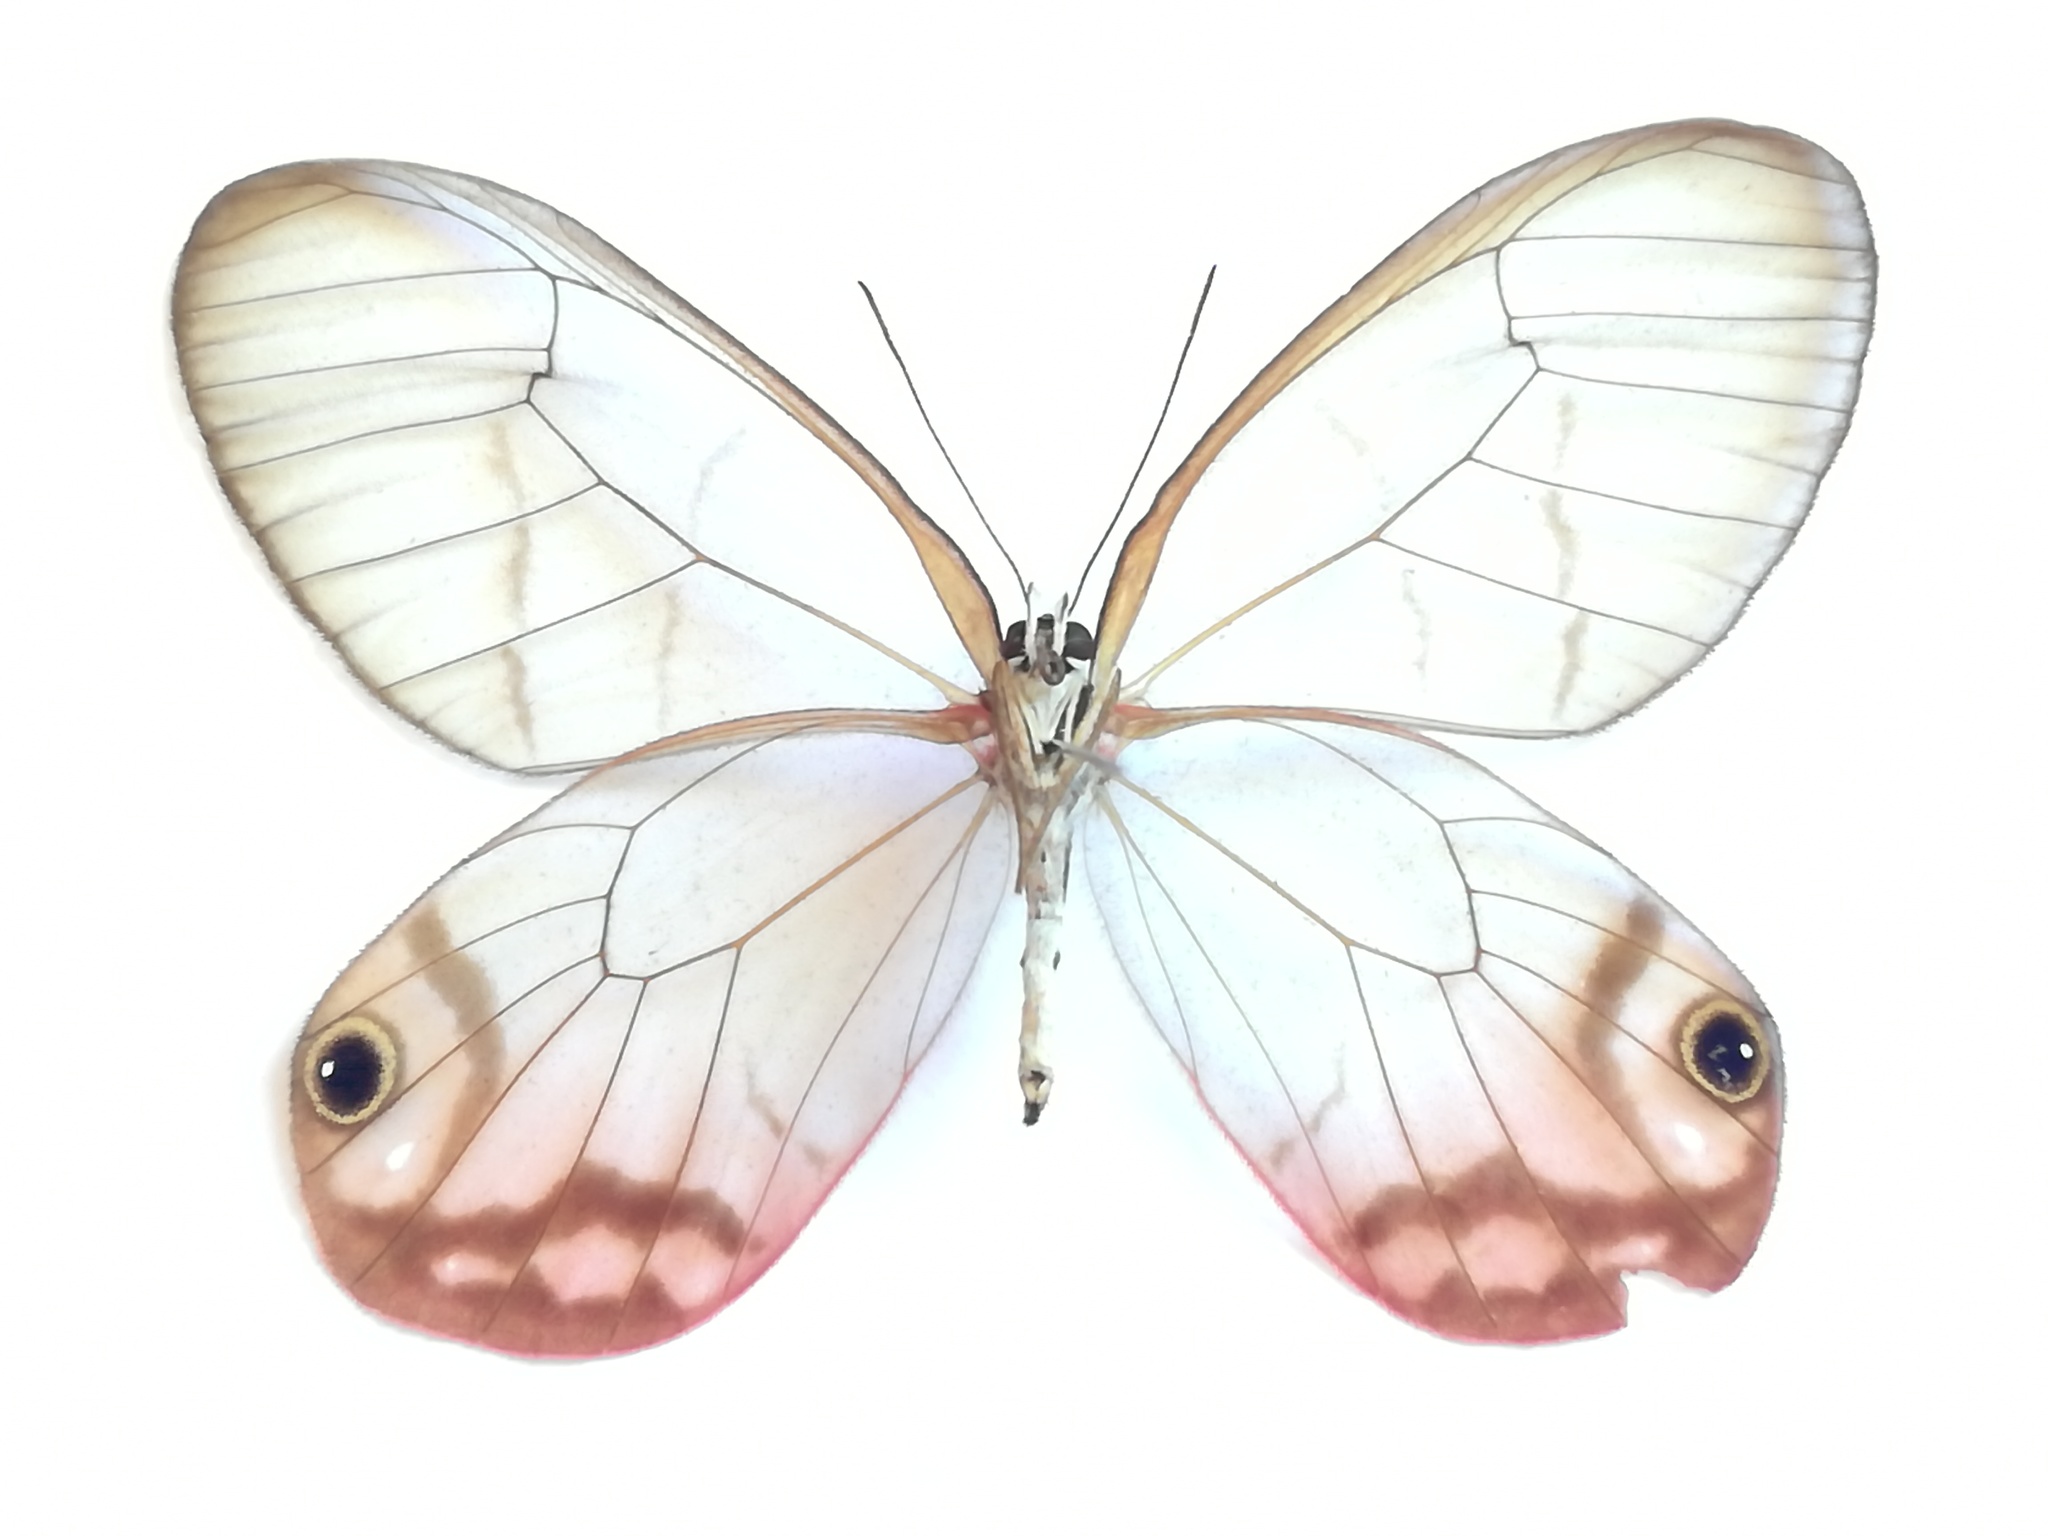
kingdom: Animalia
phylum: Arthropoda
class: Insecta
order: Lepidoptera
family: Nymphalidae
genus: Cithaerias
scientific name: Cithaerias pireta
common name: Rusted clearwing-satyr
